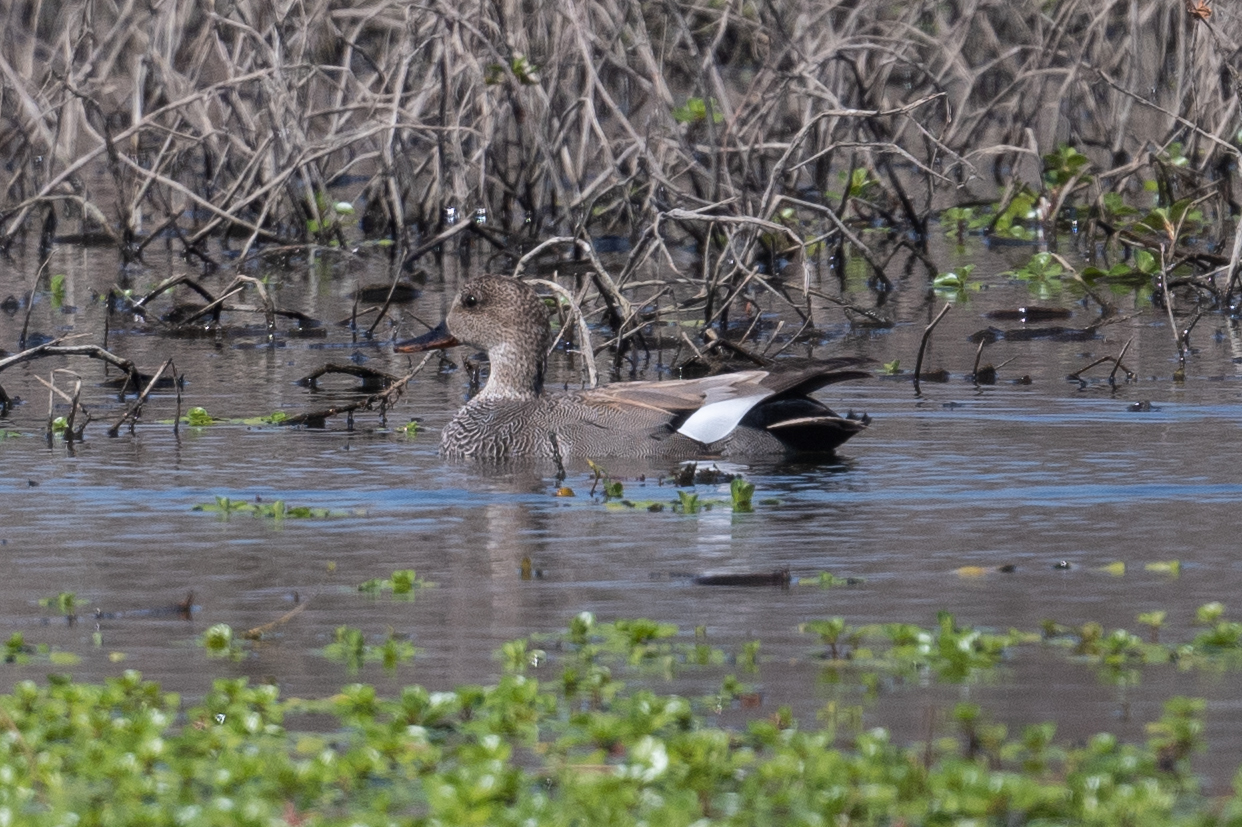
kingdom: Animalia
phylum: Chordata
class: Aves
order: Anseriformes
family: Anatidae
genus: Mareca
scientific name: Mareca strepera
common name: Gadwall
